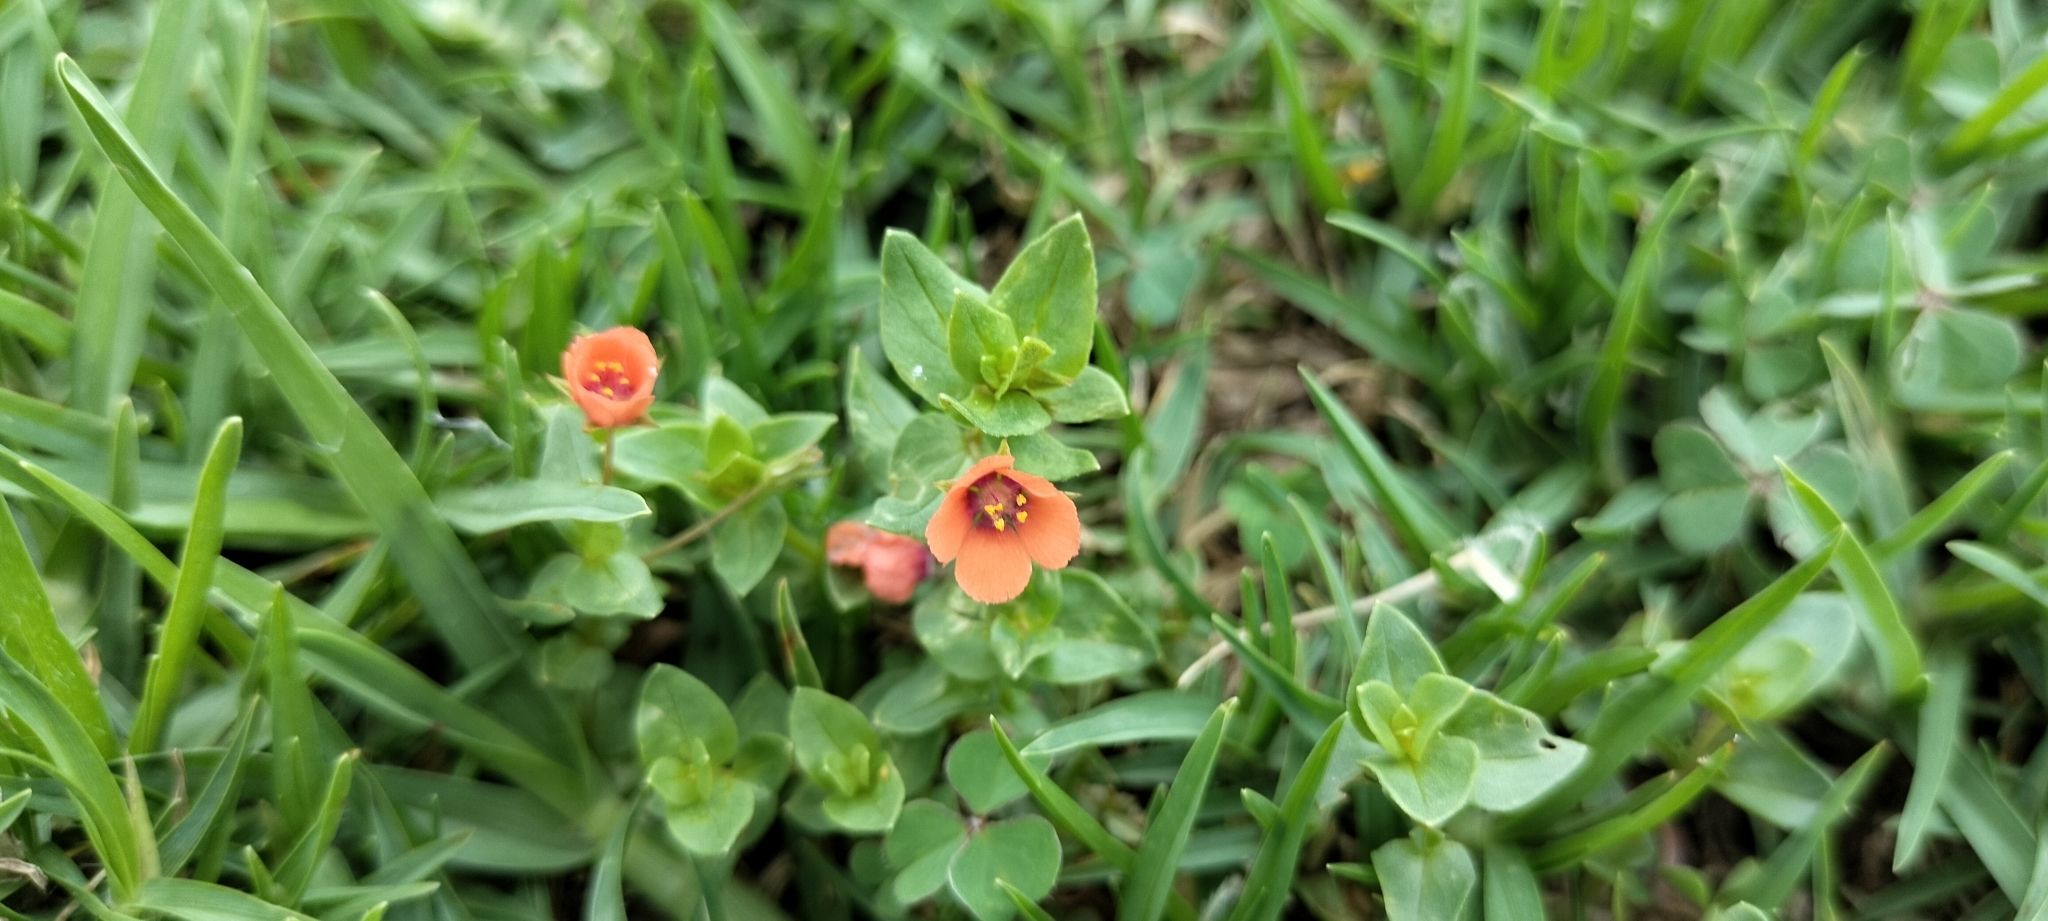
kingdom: Plantae
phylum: Tracheophyta
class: Magnoliopsida
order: Ericales
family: Primulaceae
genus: Lysimachia
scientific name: Lysimachia arvensis
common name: Scarlet pimpernel
